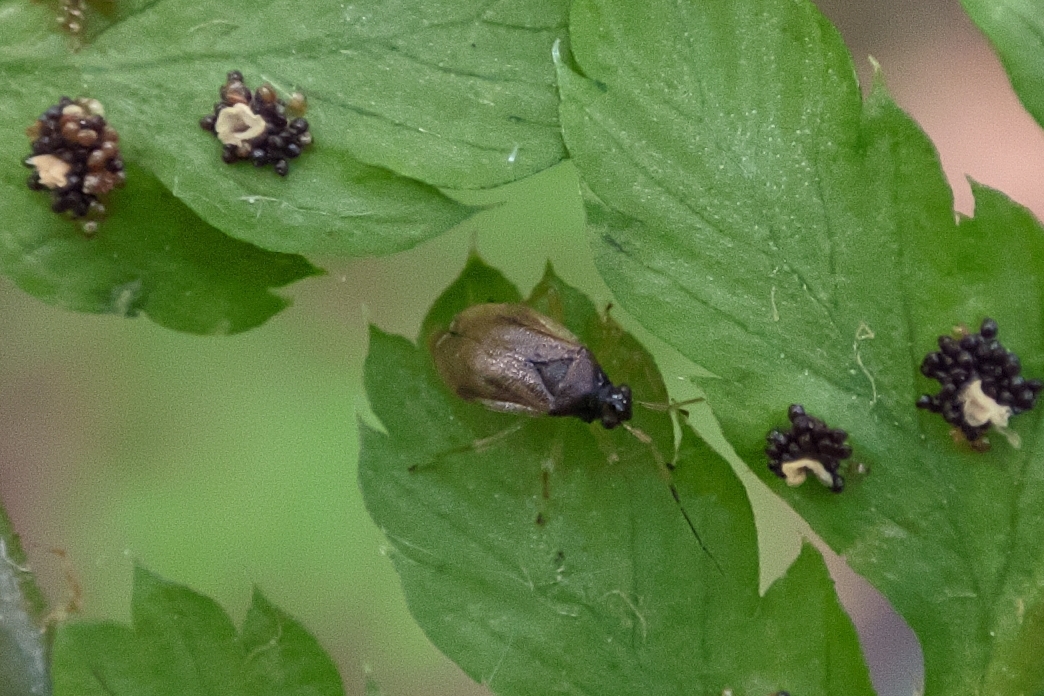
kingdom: Animalia
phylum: Arthropoda
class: Insecta
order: Hemiptera
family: Miridae
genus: Bryocoris
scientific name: Bryocoris pteridis
